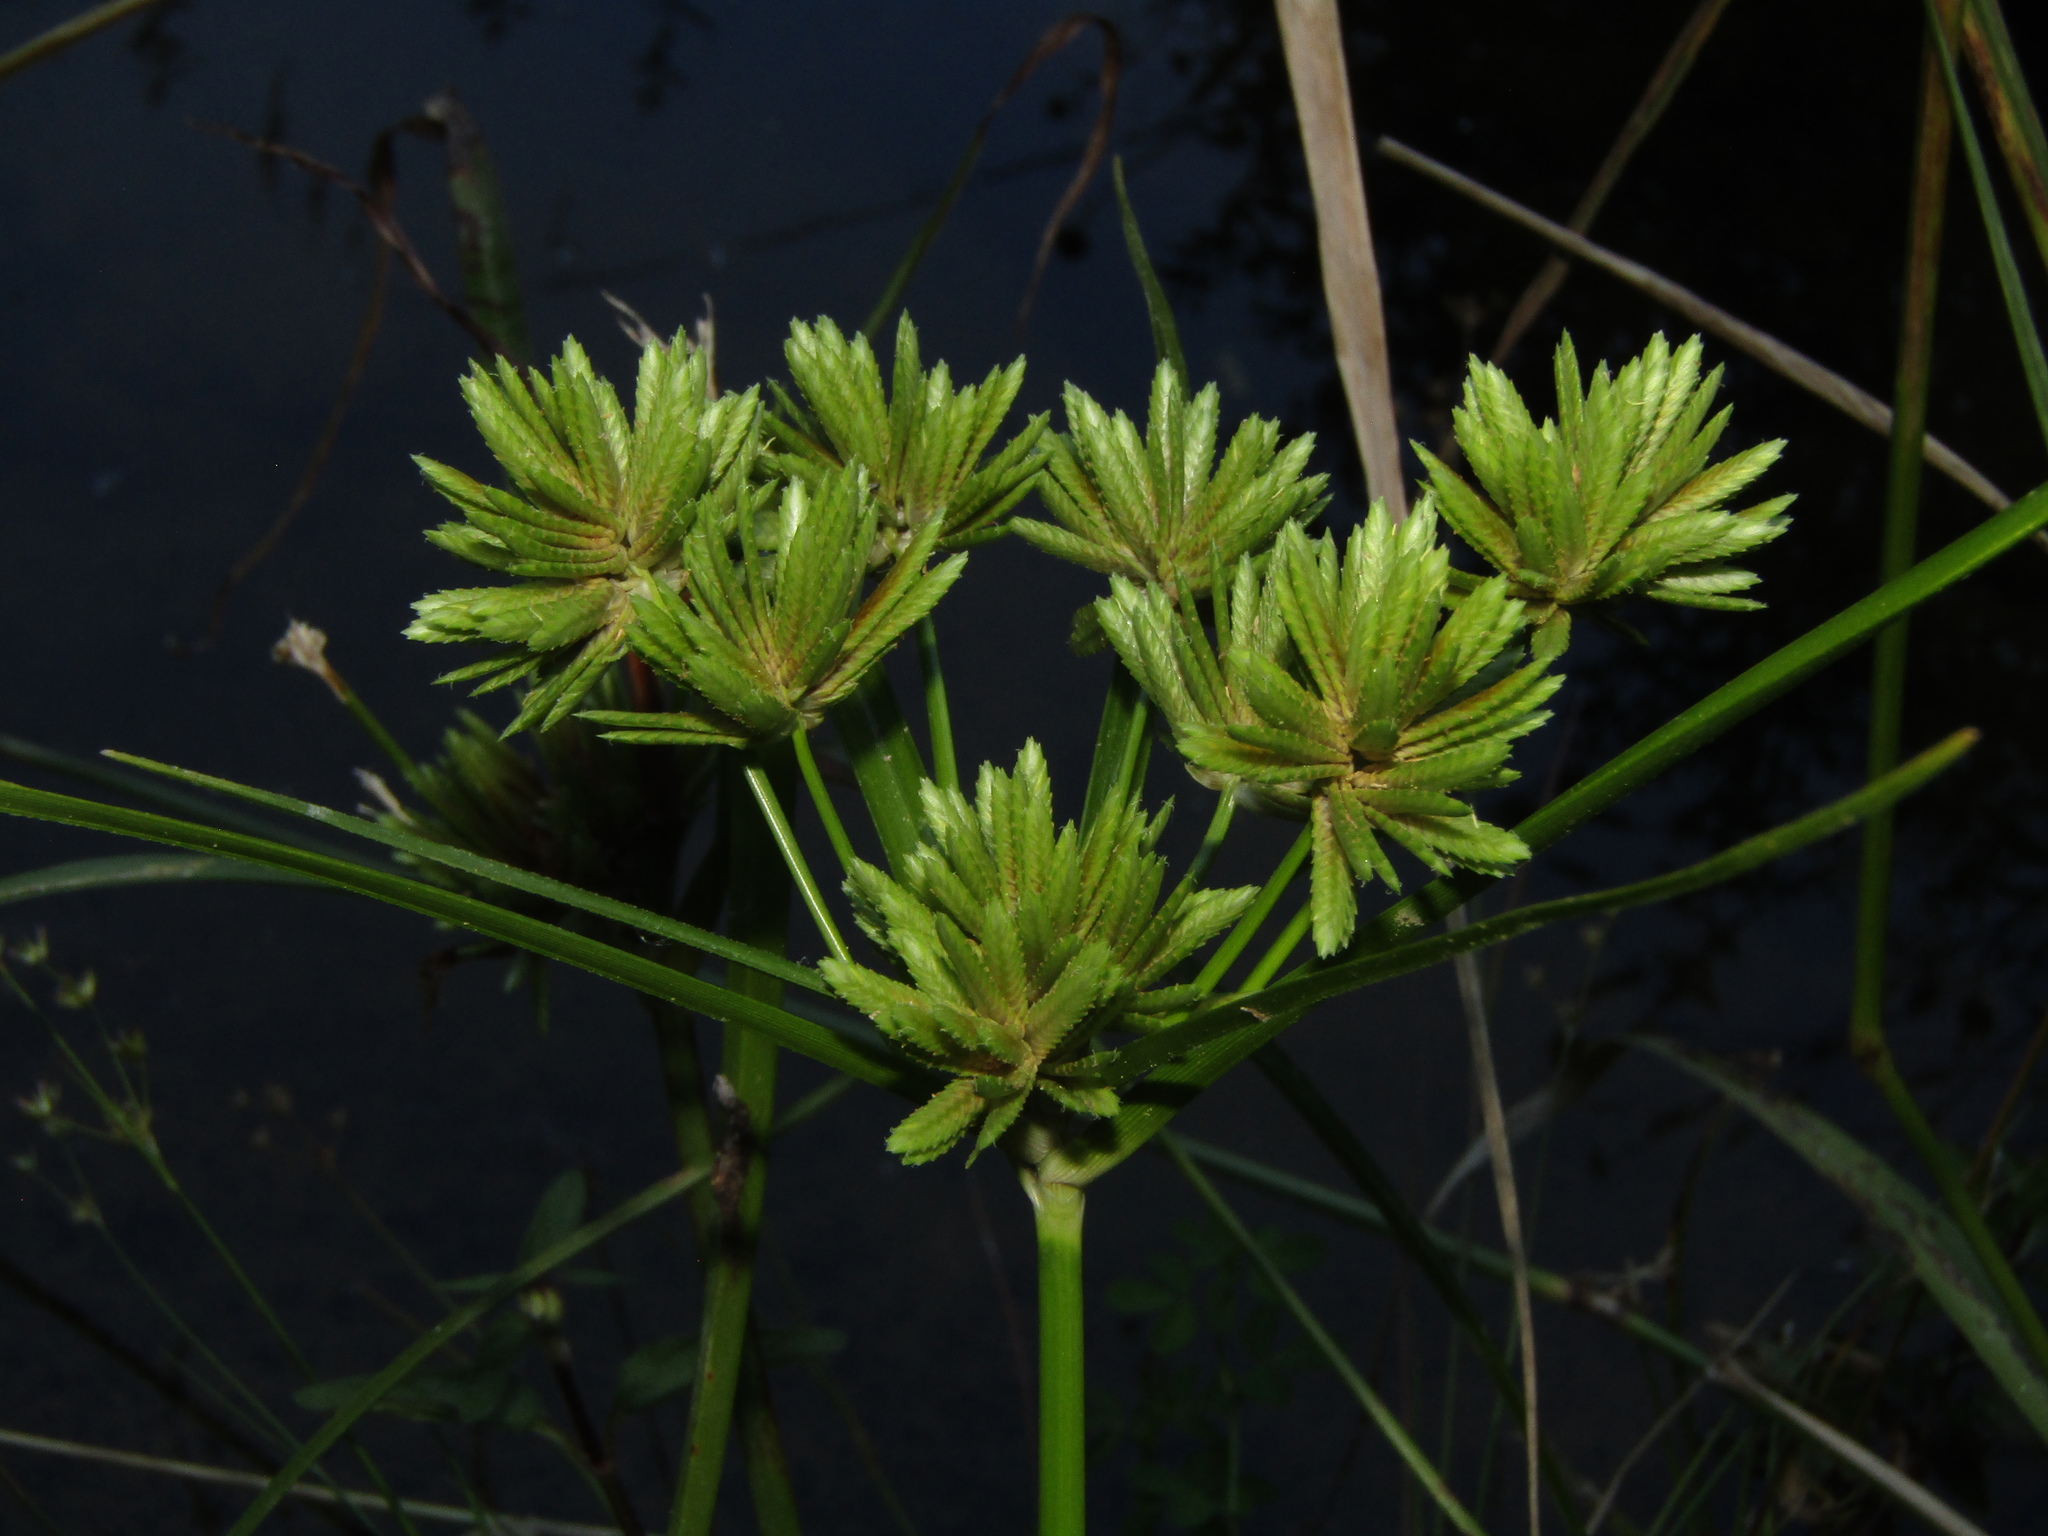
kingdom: Plantae
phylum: Tracheophyta
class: Liliopsida
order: Poales
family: Cyperaceae
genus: Cyperus
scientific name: Cyperus eragrostis
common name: Tall flatsedge
